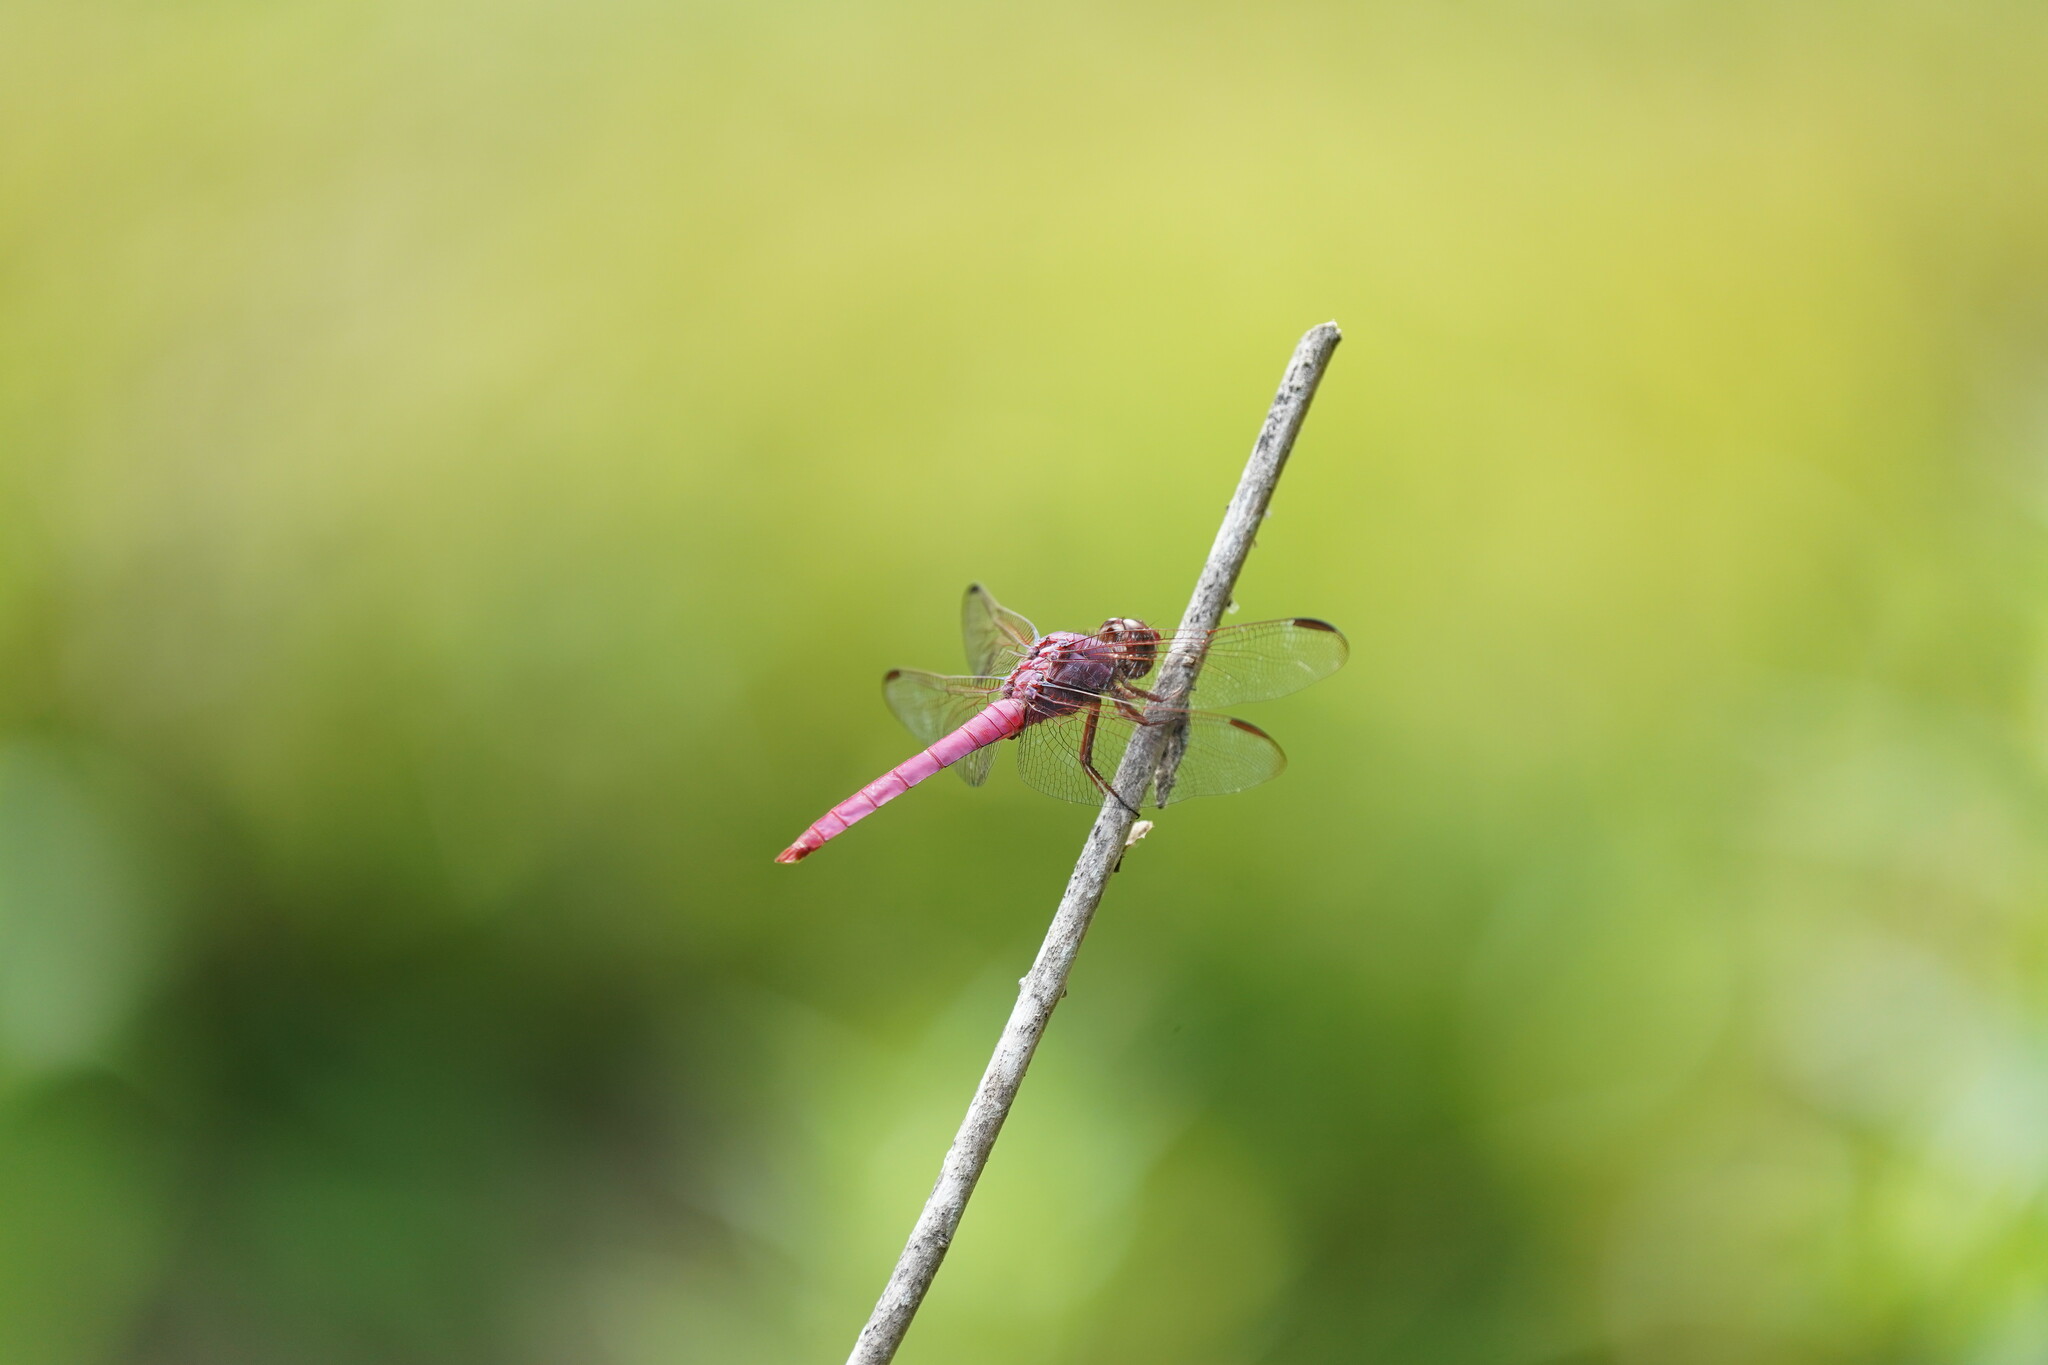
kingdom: Animalia
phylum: Arthropoda
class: Insecta
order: Odonata
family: Libellulidae
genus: Orthemis
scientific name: Orthemis ferruginea
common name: Roseate skimmer
